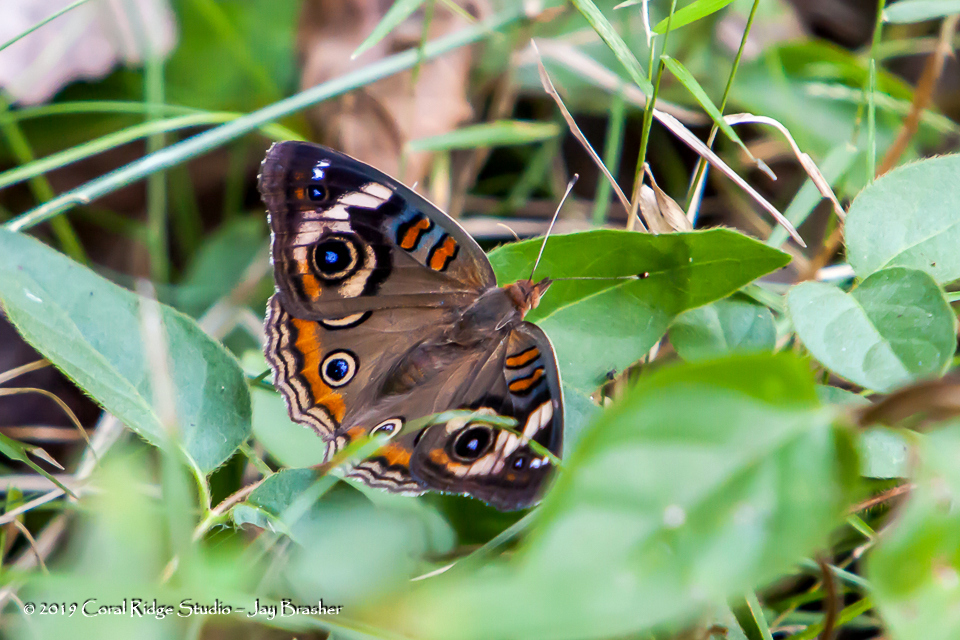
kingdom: Animalia
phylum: Arthropoda
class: Insecta
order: Lepidoptera
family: Nymphalidae
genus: Junonia
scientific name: Junonia coenia
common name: Common buckeye
